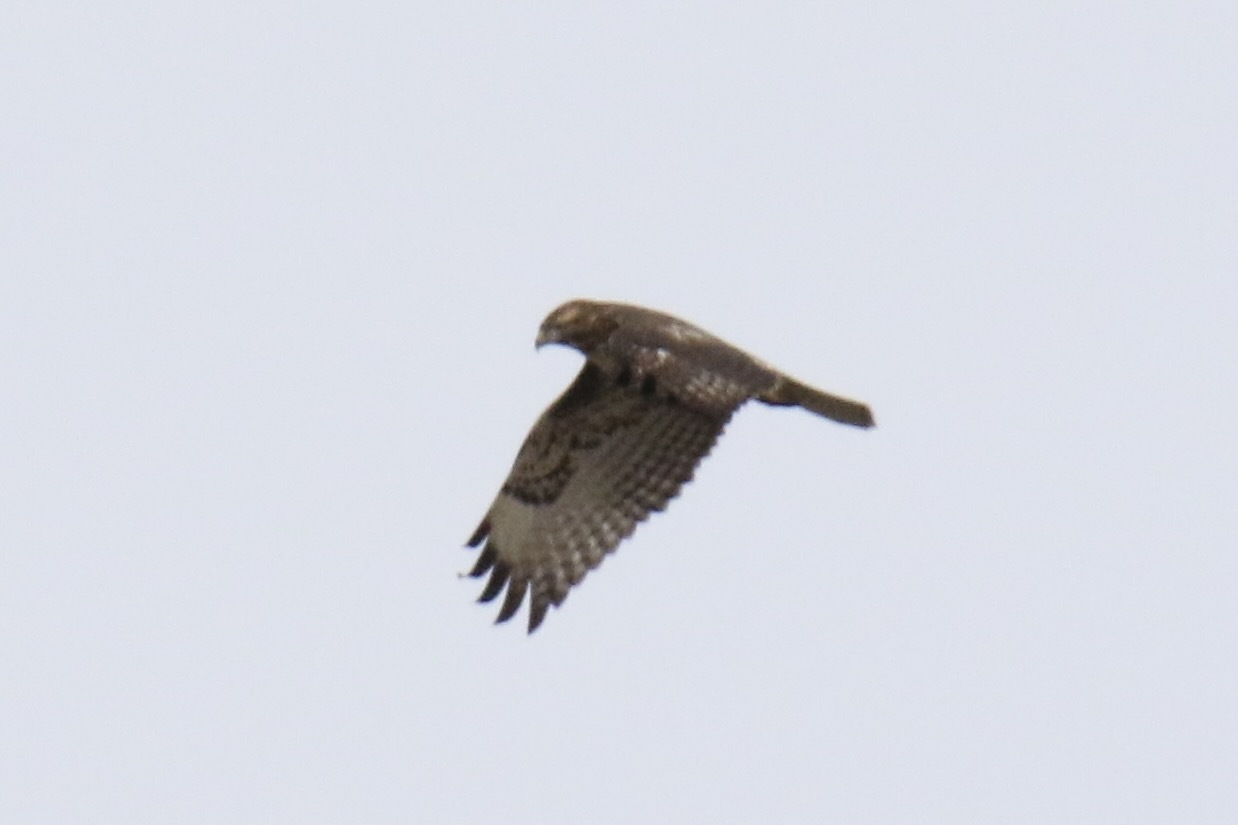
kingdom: Animalia
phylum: Chordata
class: Aves
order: Accipitriformes
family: Accipitridae
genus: Buteo
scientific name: Buteo jamaicensis
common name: Red-tailed hawk
